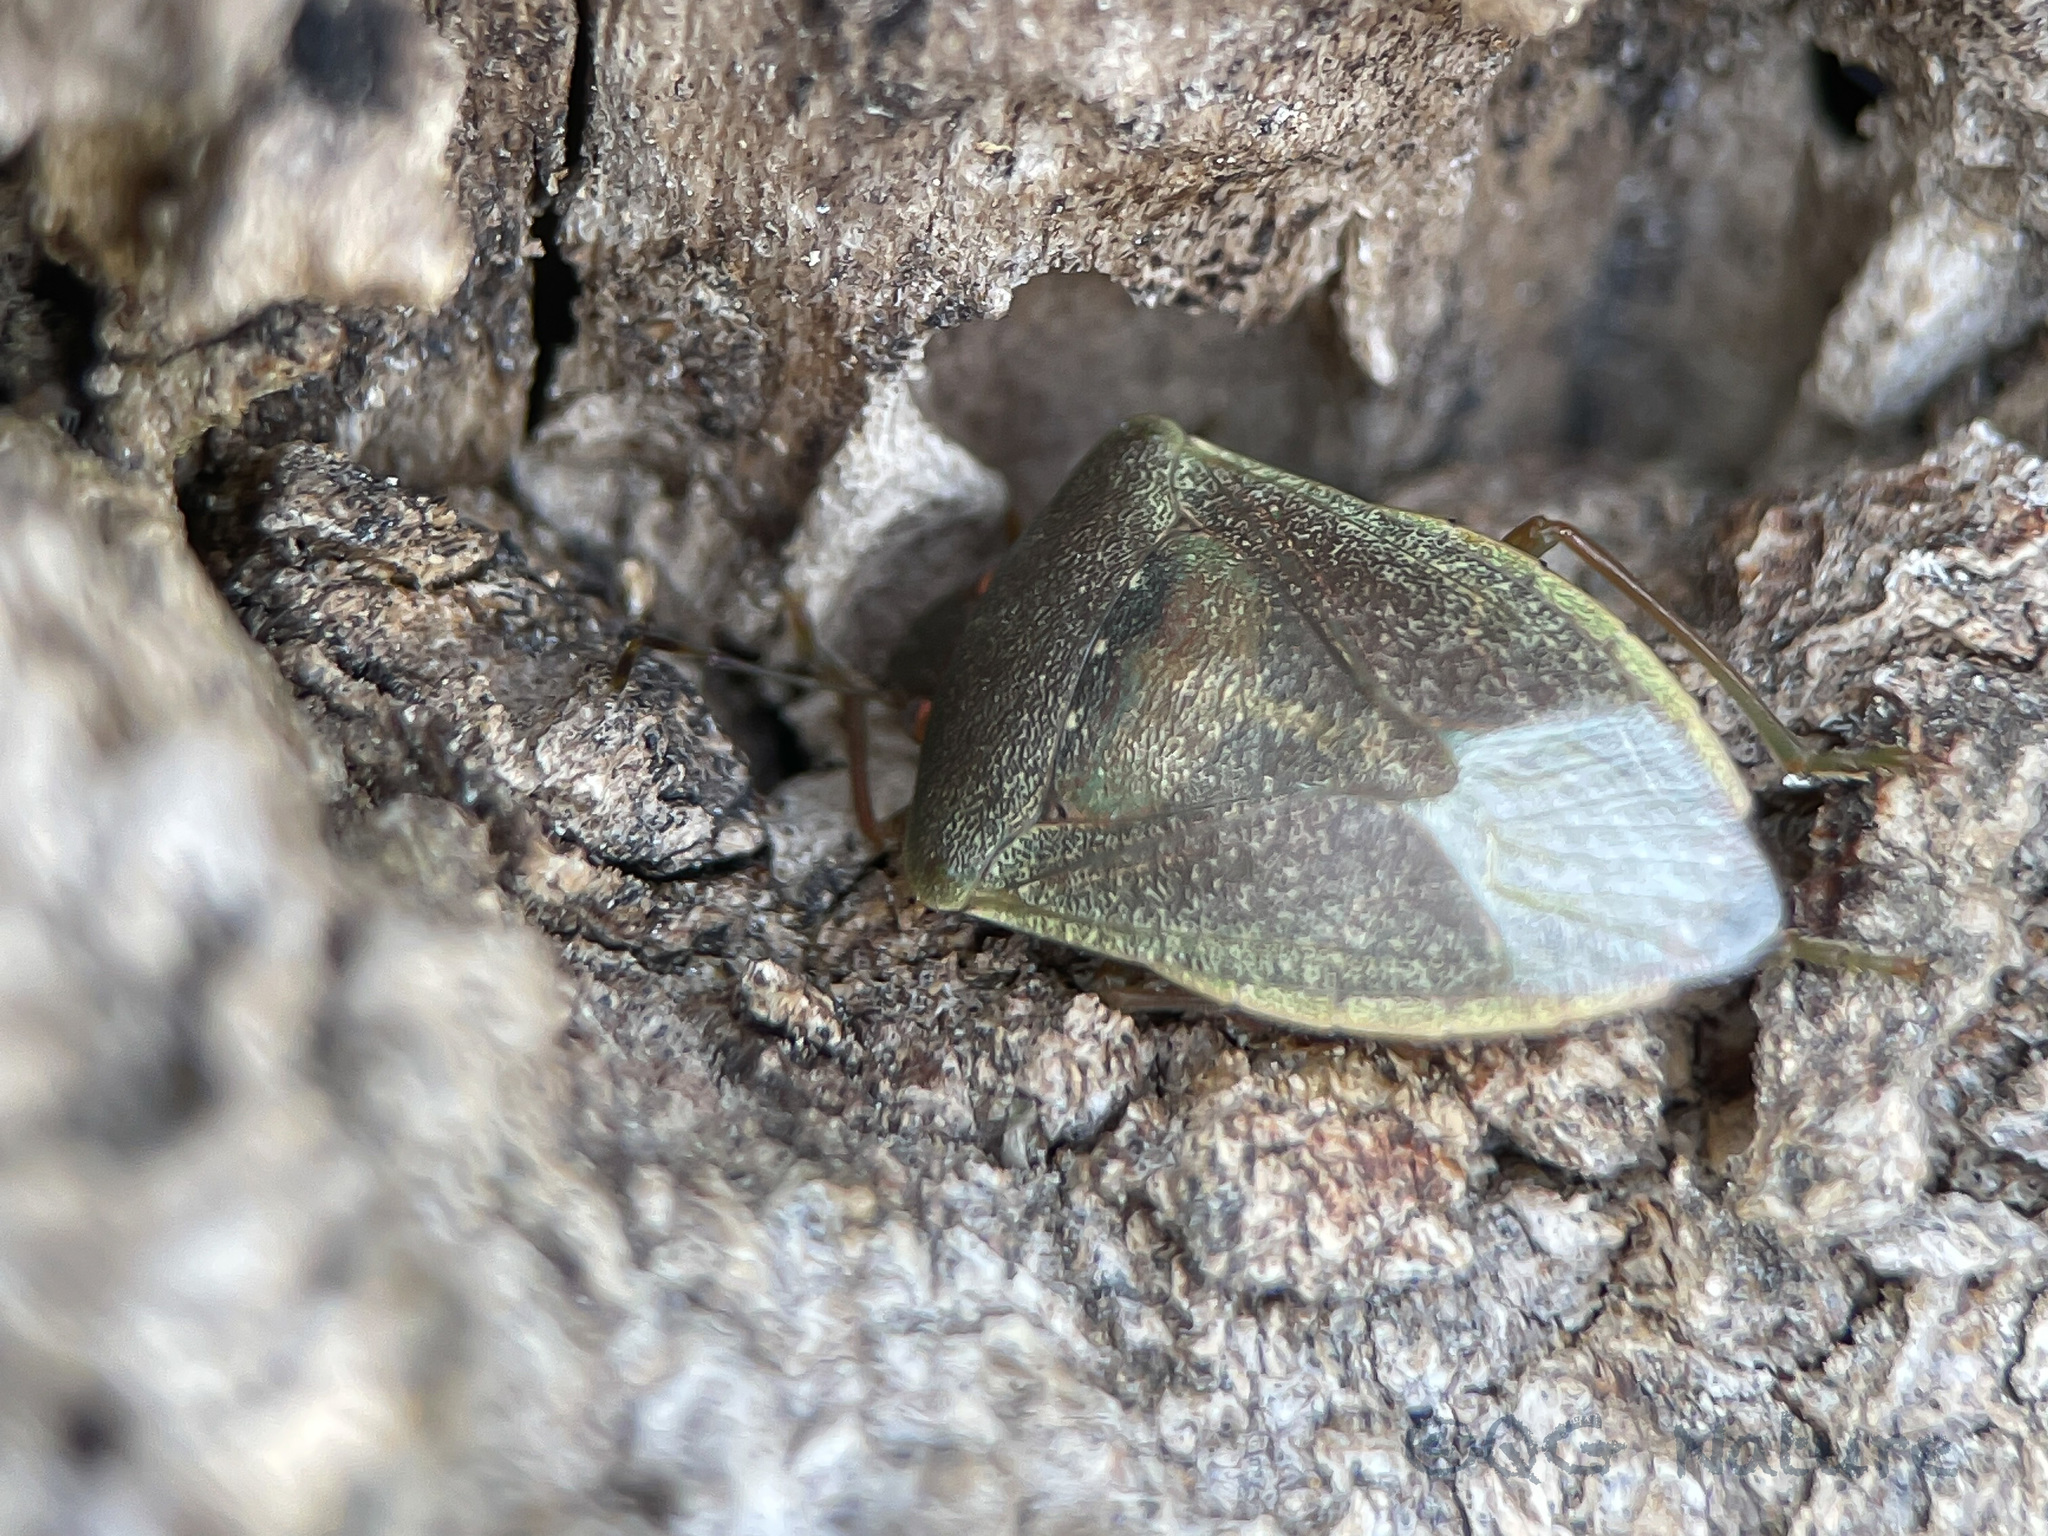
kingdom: Animalia
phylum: Arthropoda
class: Insecta
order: Hemiptera
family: Pentatomidae
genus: Nezara
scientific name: Nezara viridula
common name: Southern green stink bug
